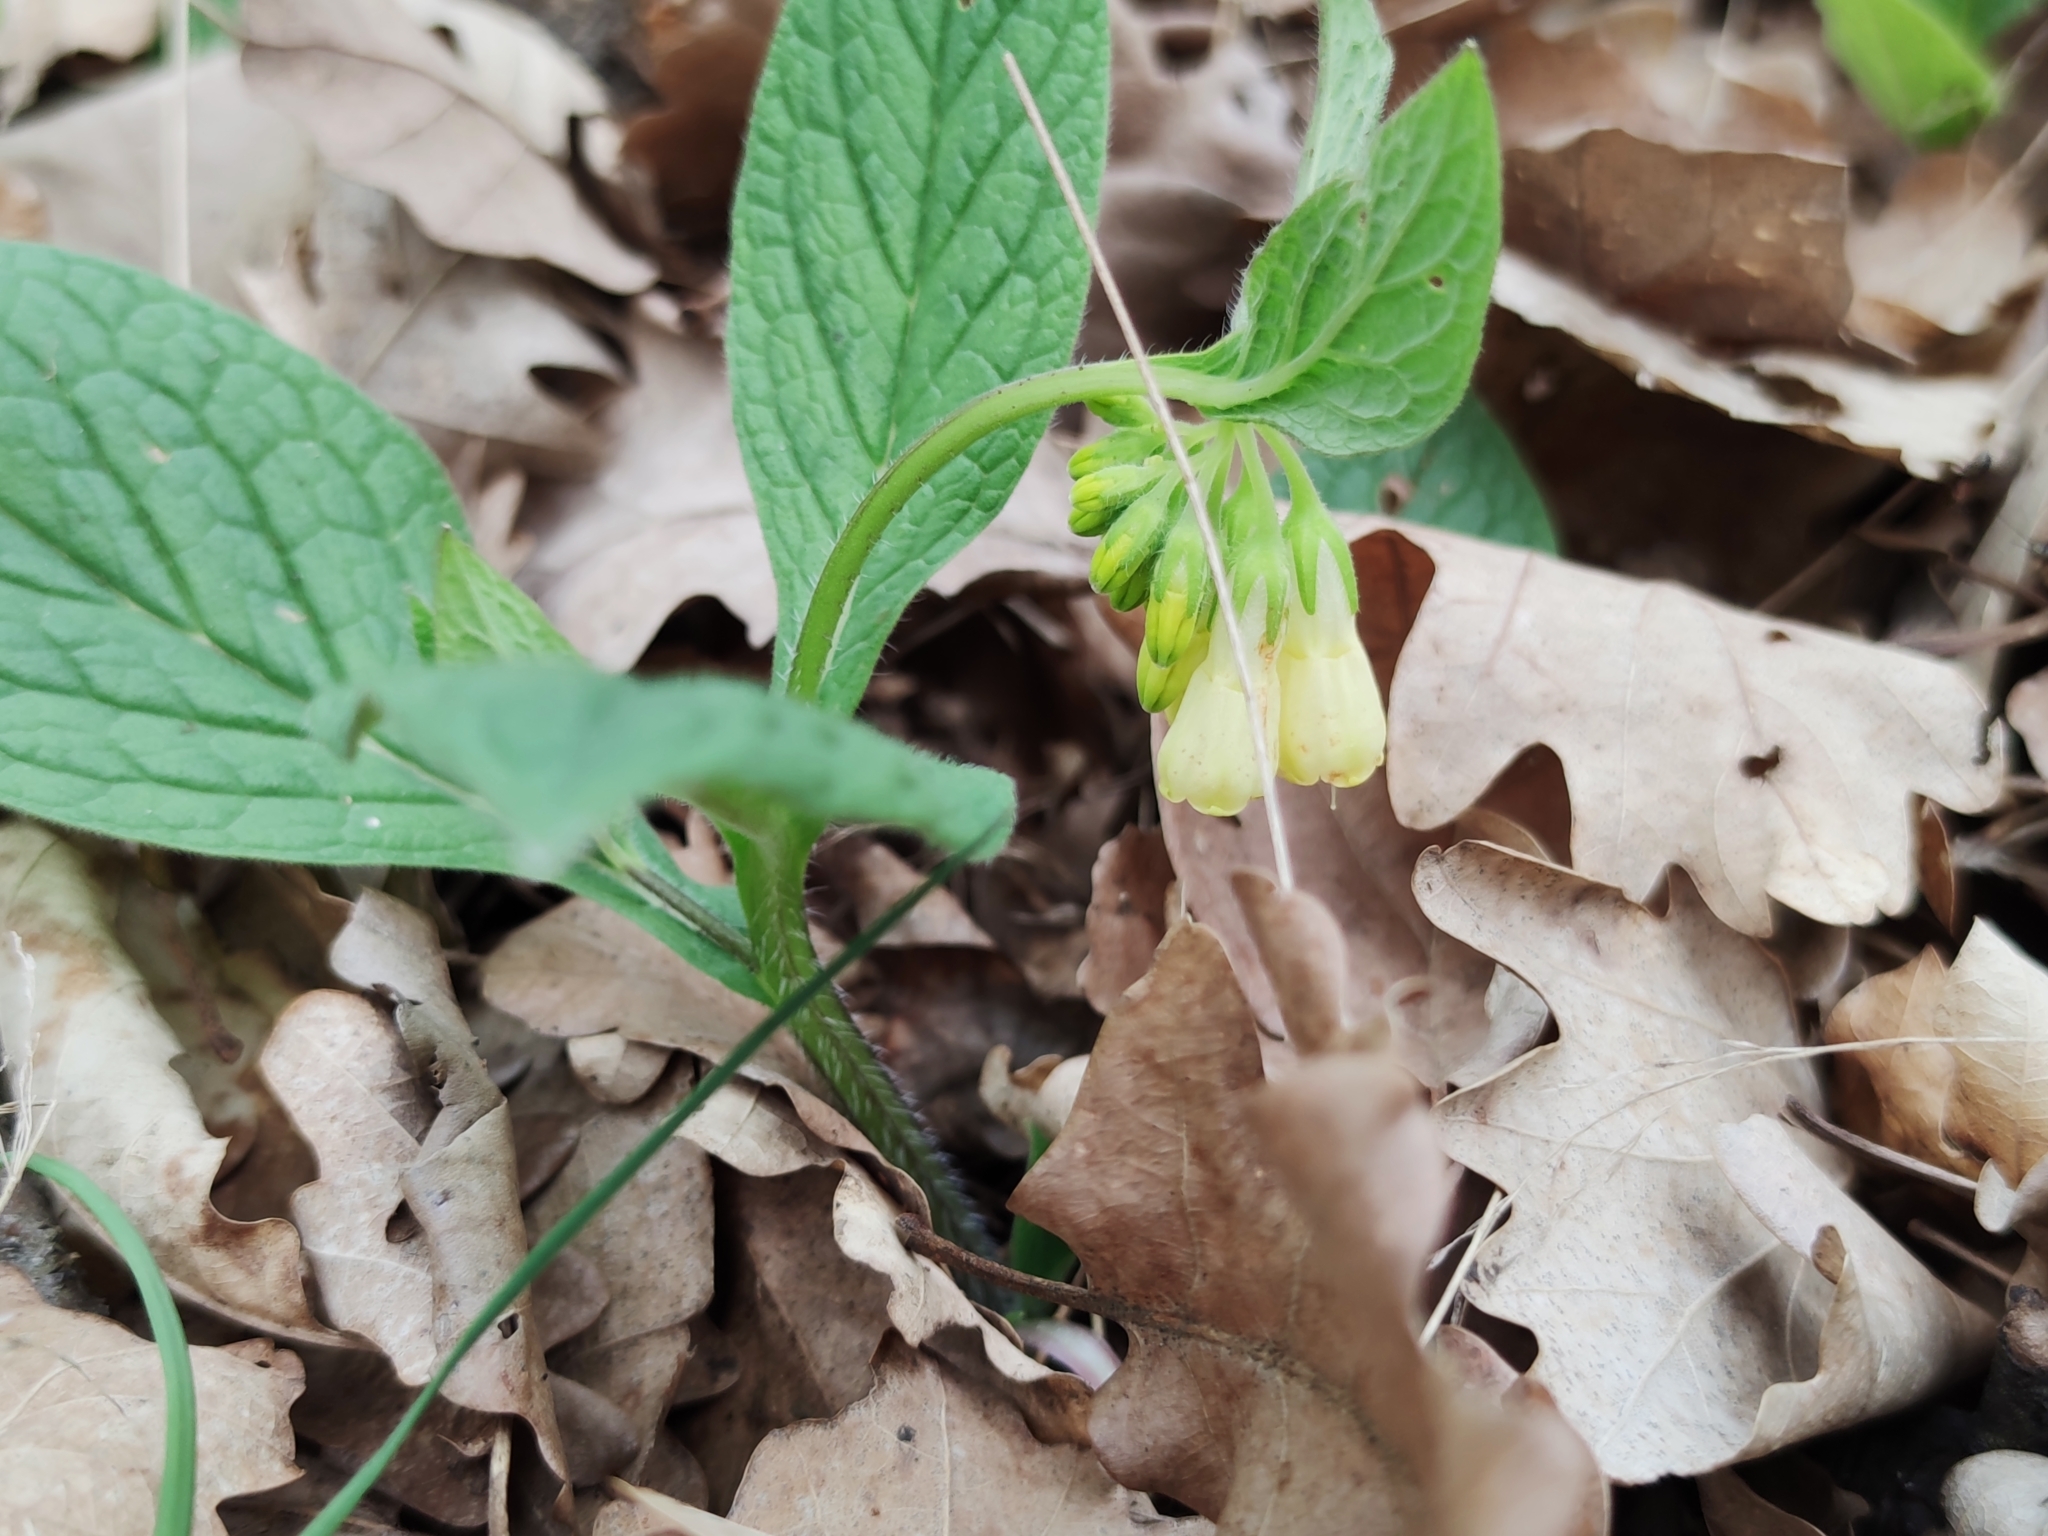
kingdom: Plantae
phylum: Tracheophyta
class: Magnoliopsida
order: Boraginales
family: Boraginaceae
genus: Symphytum
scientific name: Symphytum tuberosum
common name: Tuberous comfrey
